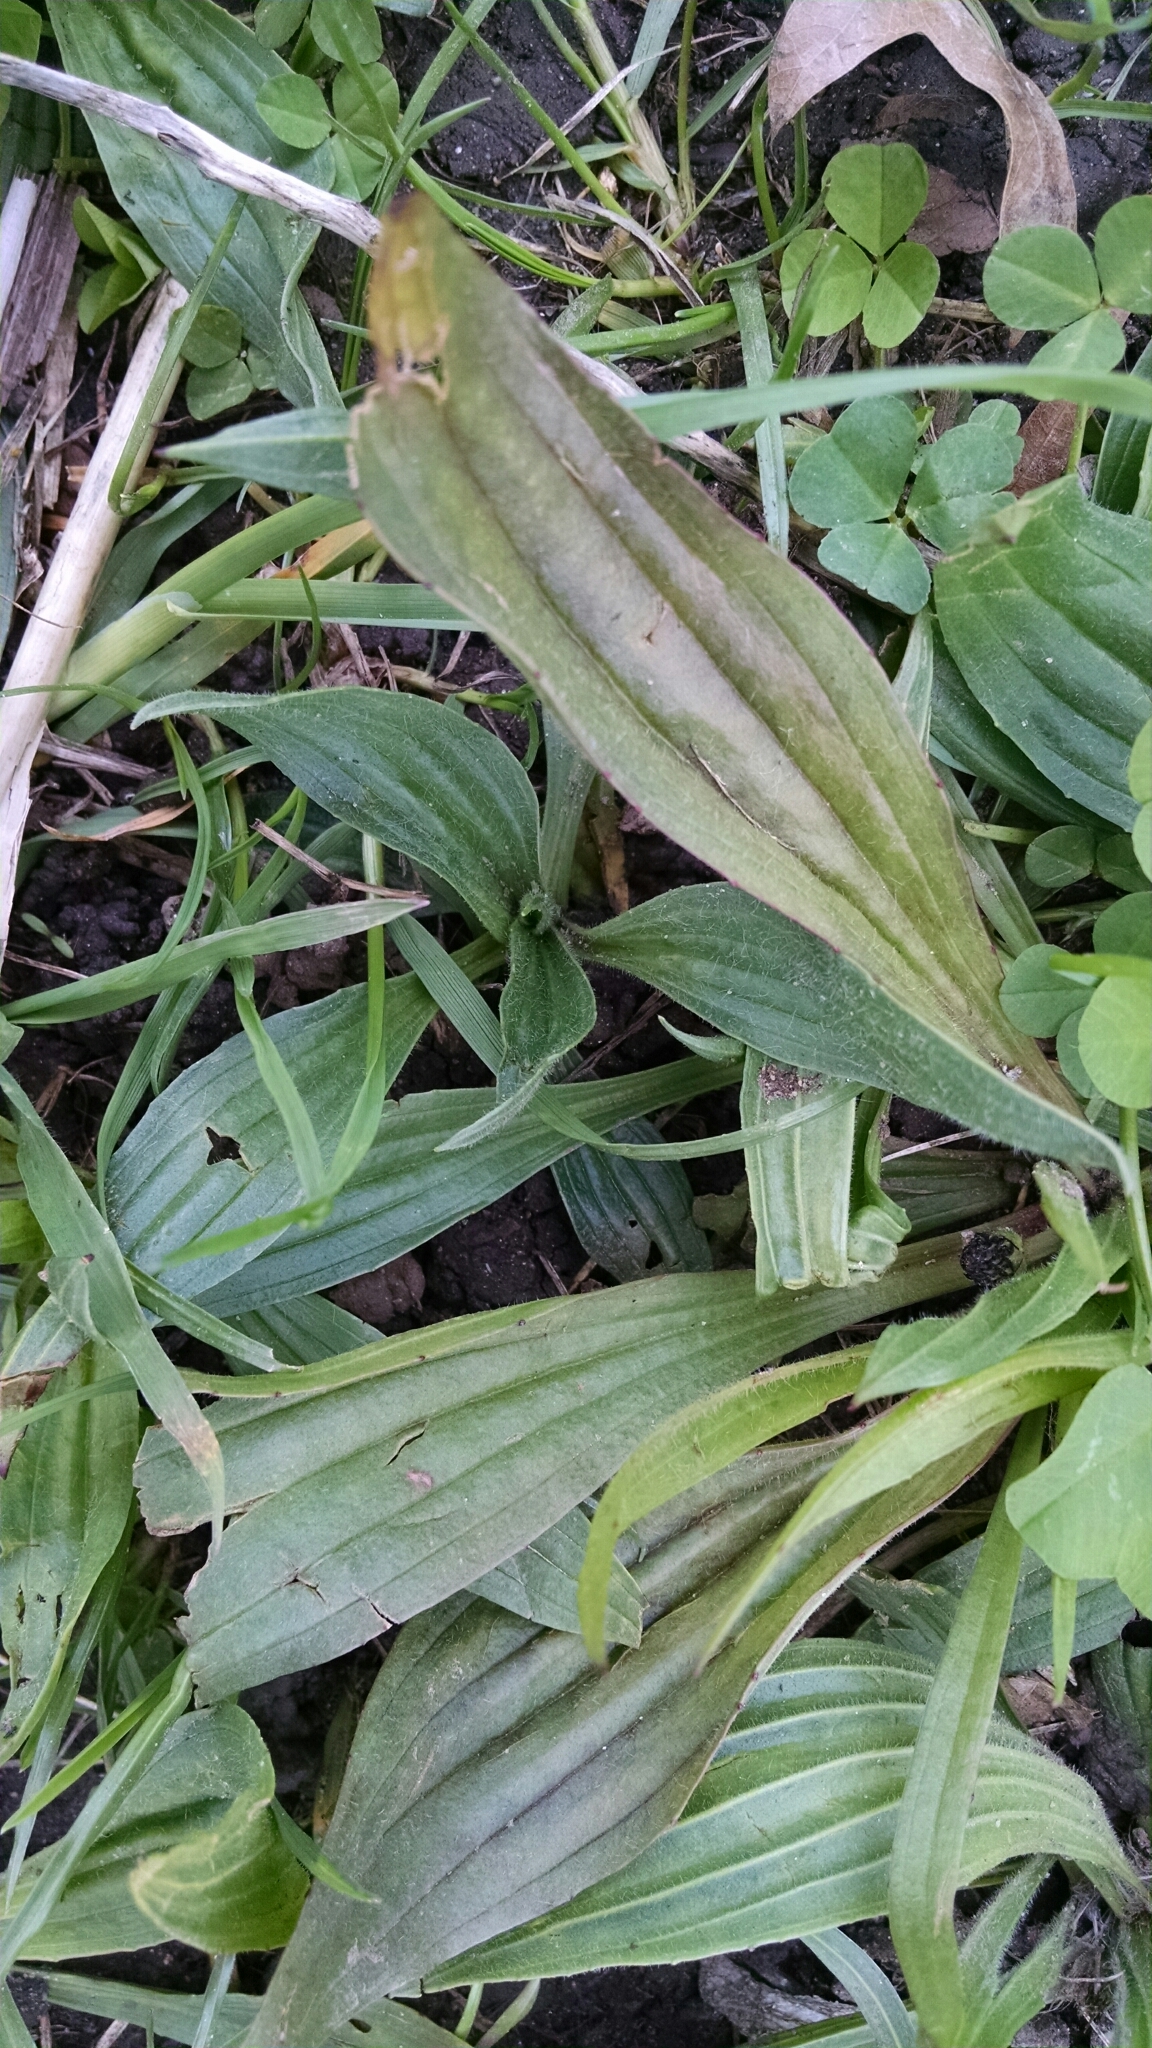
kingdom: Plantae
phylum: Tracheophyta
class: Magnoliopsida
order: Lamiales
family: Plantaginaceae
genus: Plantago
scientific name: Plantago lanceolata
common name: Ribwort plantain
